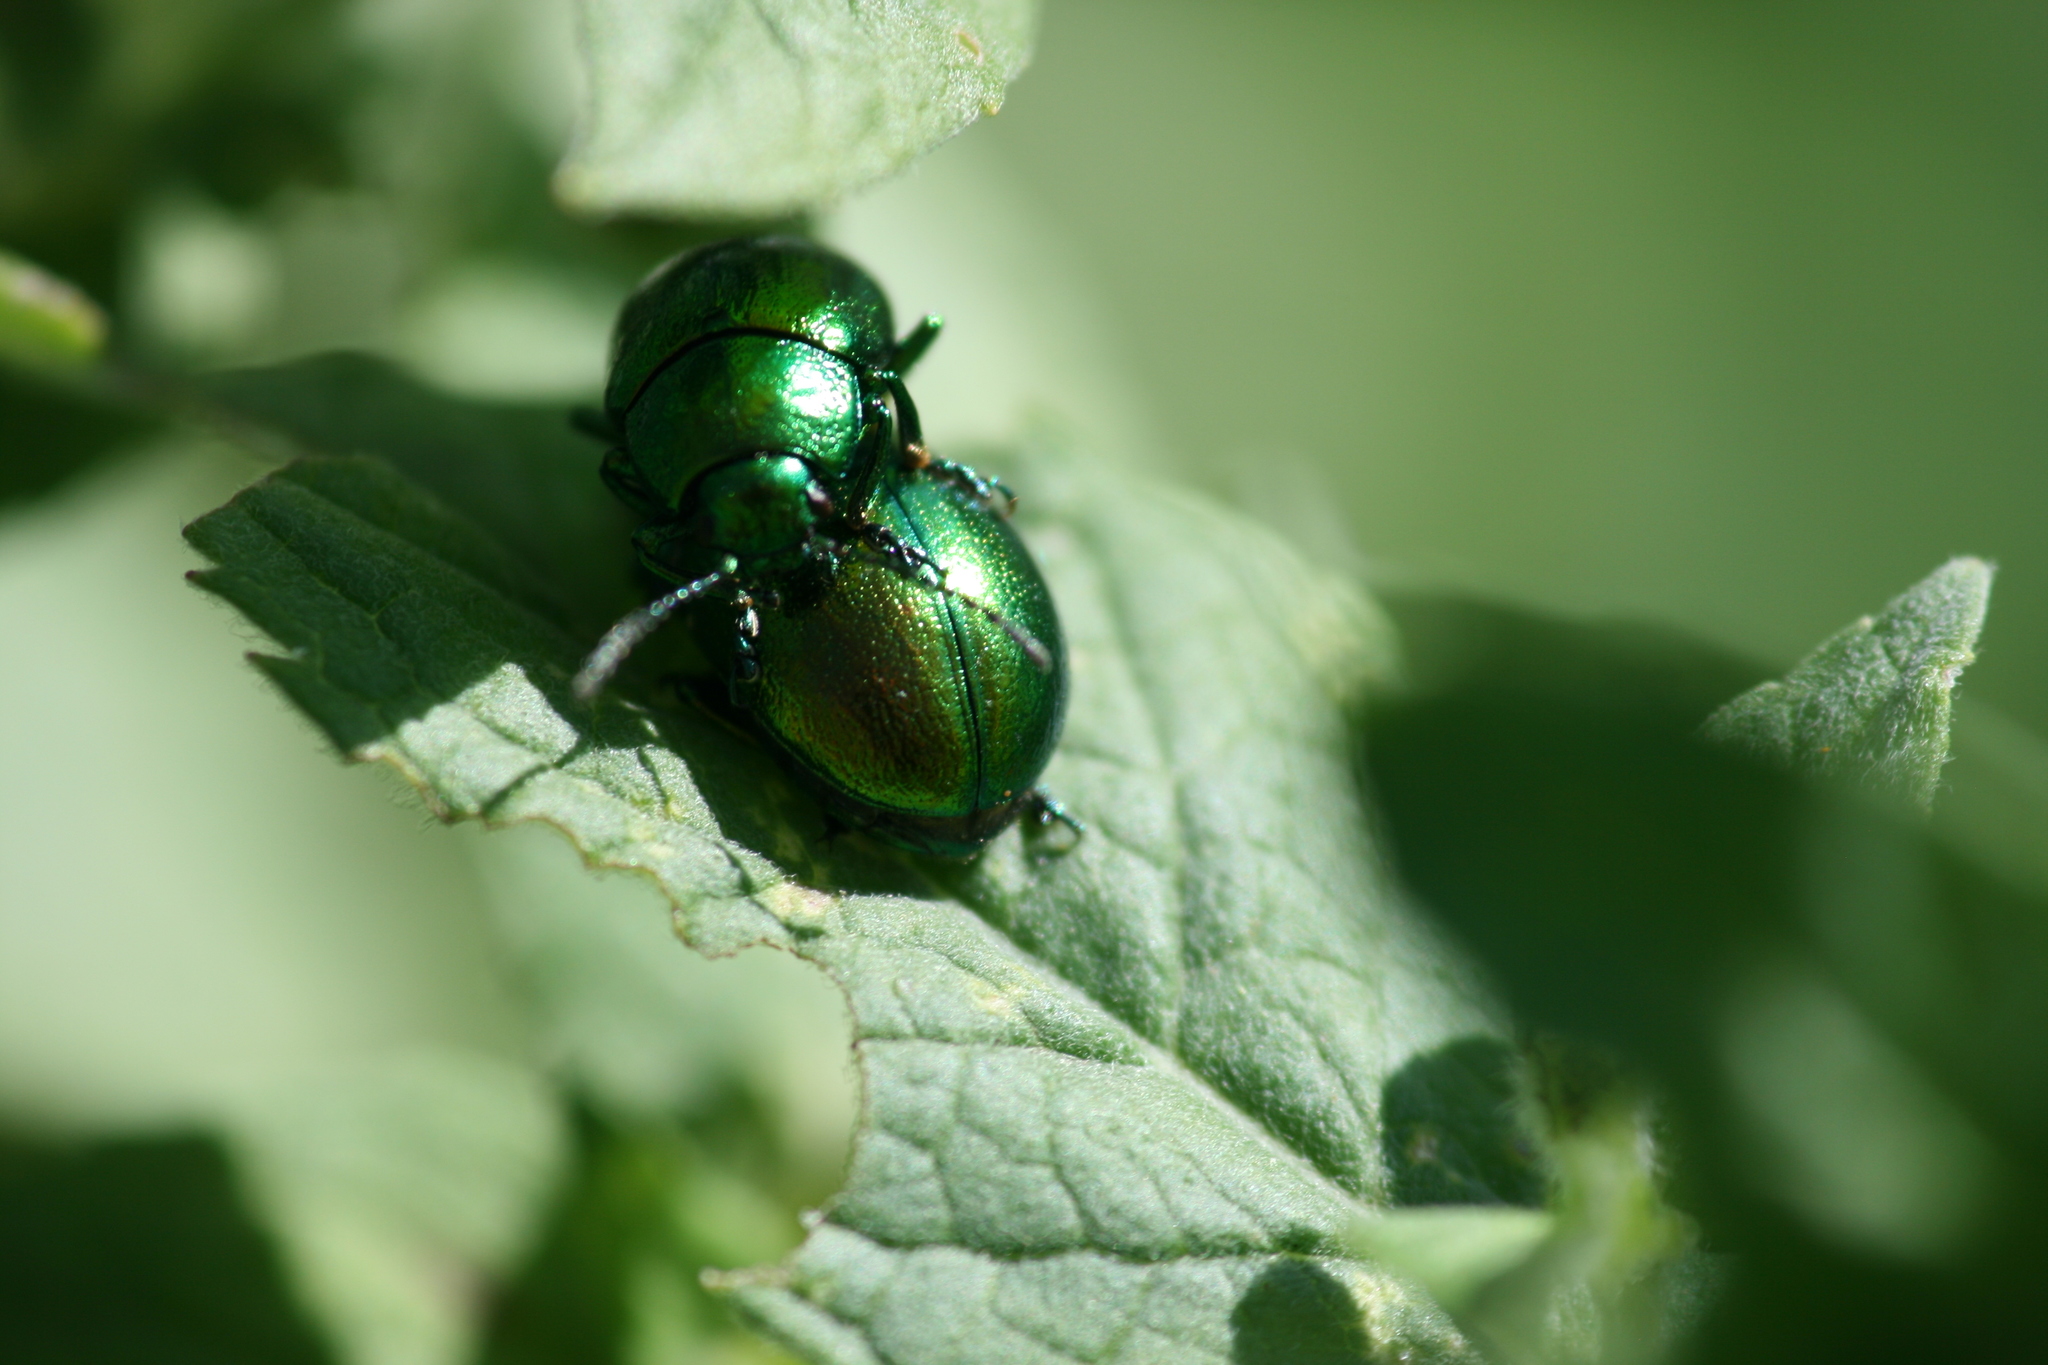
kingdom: Animalia
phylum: Arthropoda
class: Insecta
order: Coleoptera
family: Chrysomelidae
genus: Chrysolina
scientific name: Chrysolina herbacea
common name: Mint leaf beatle
